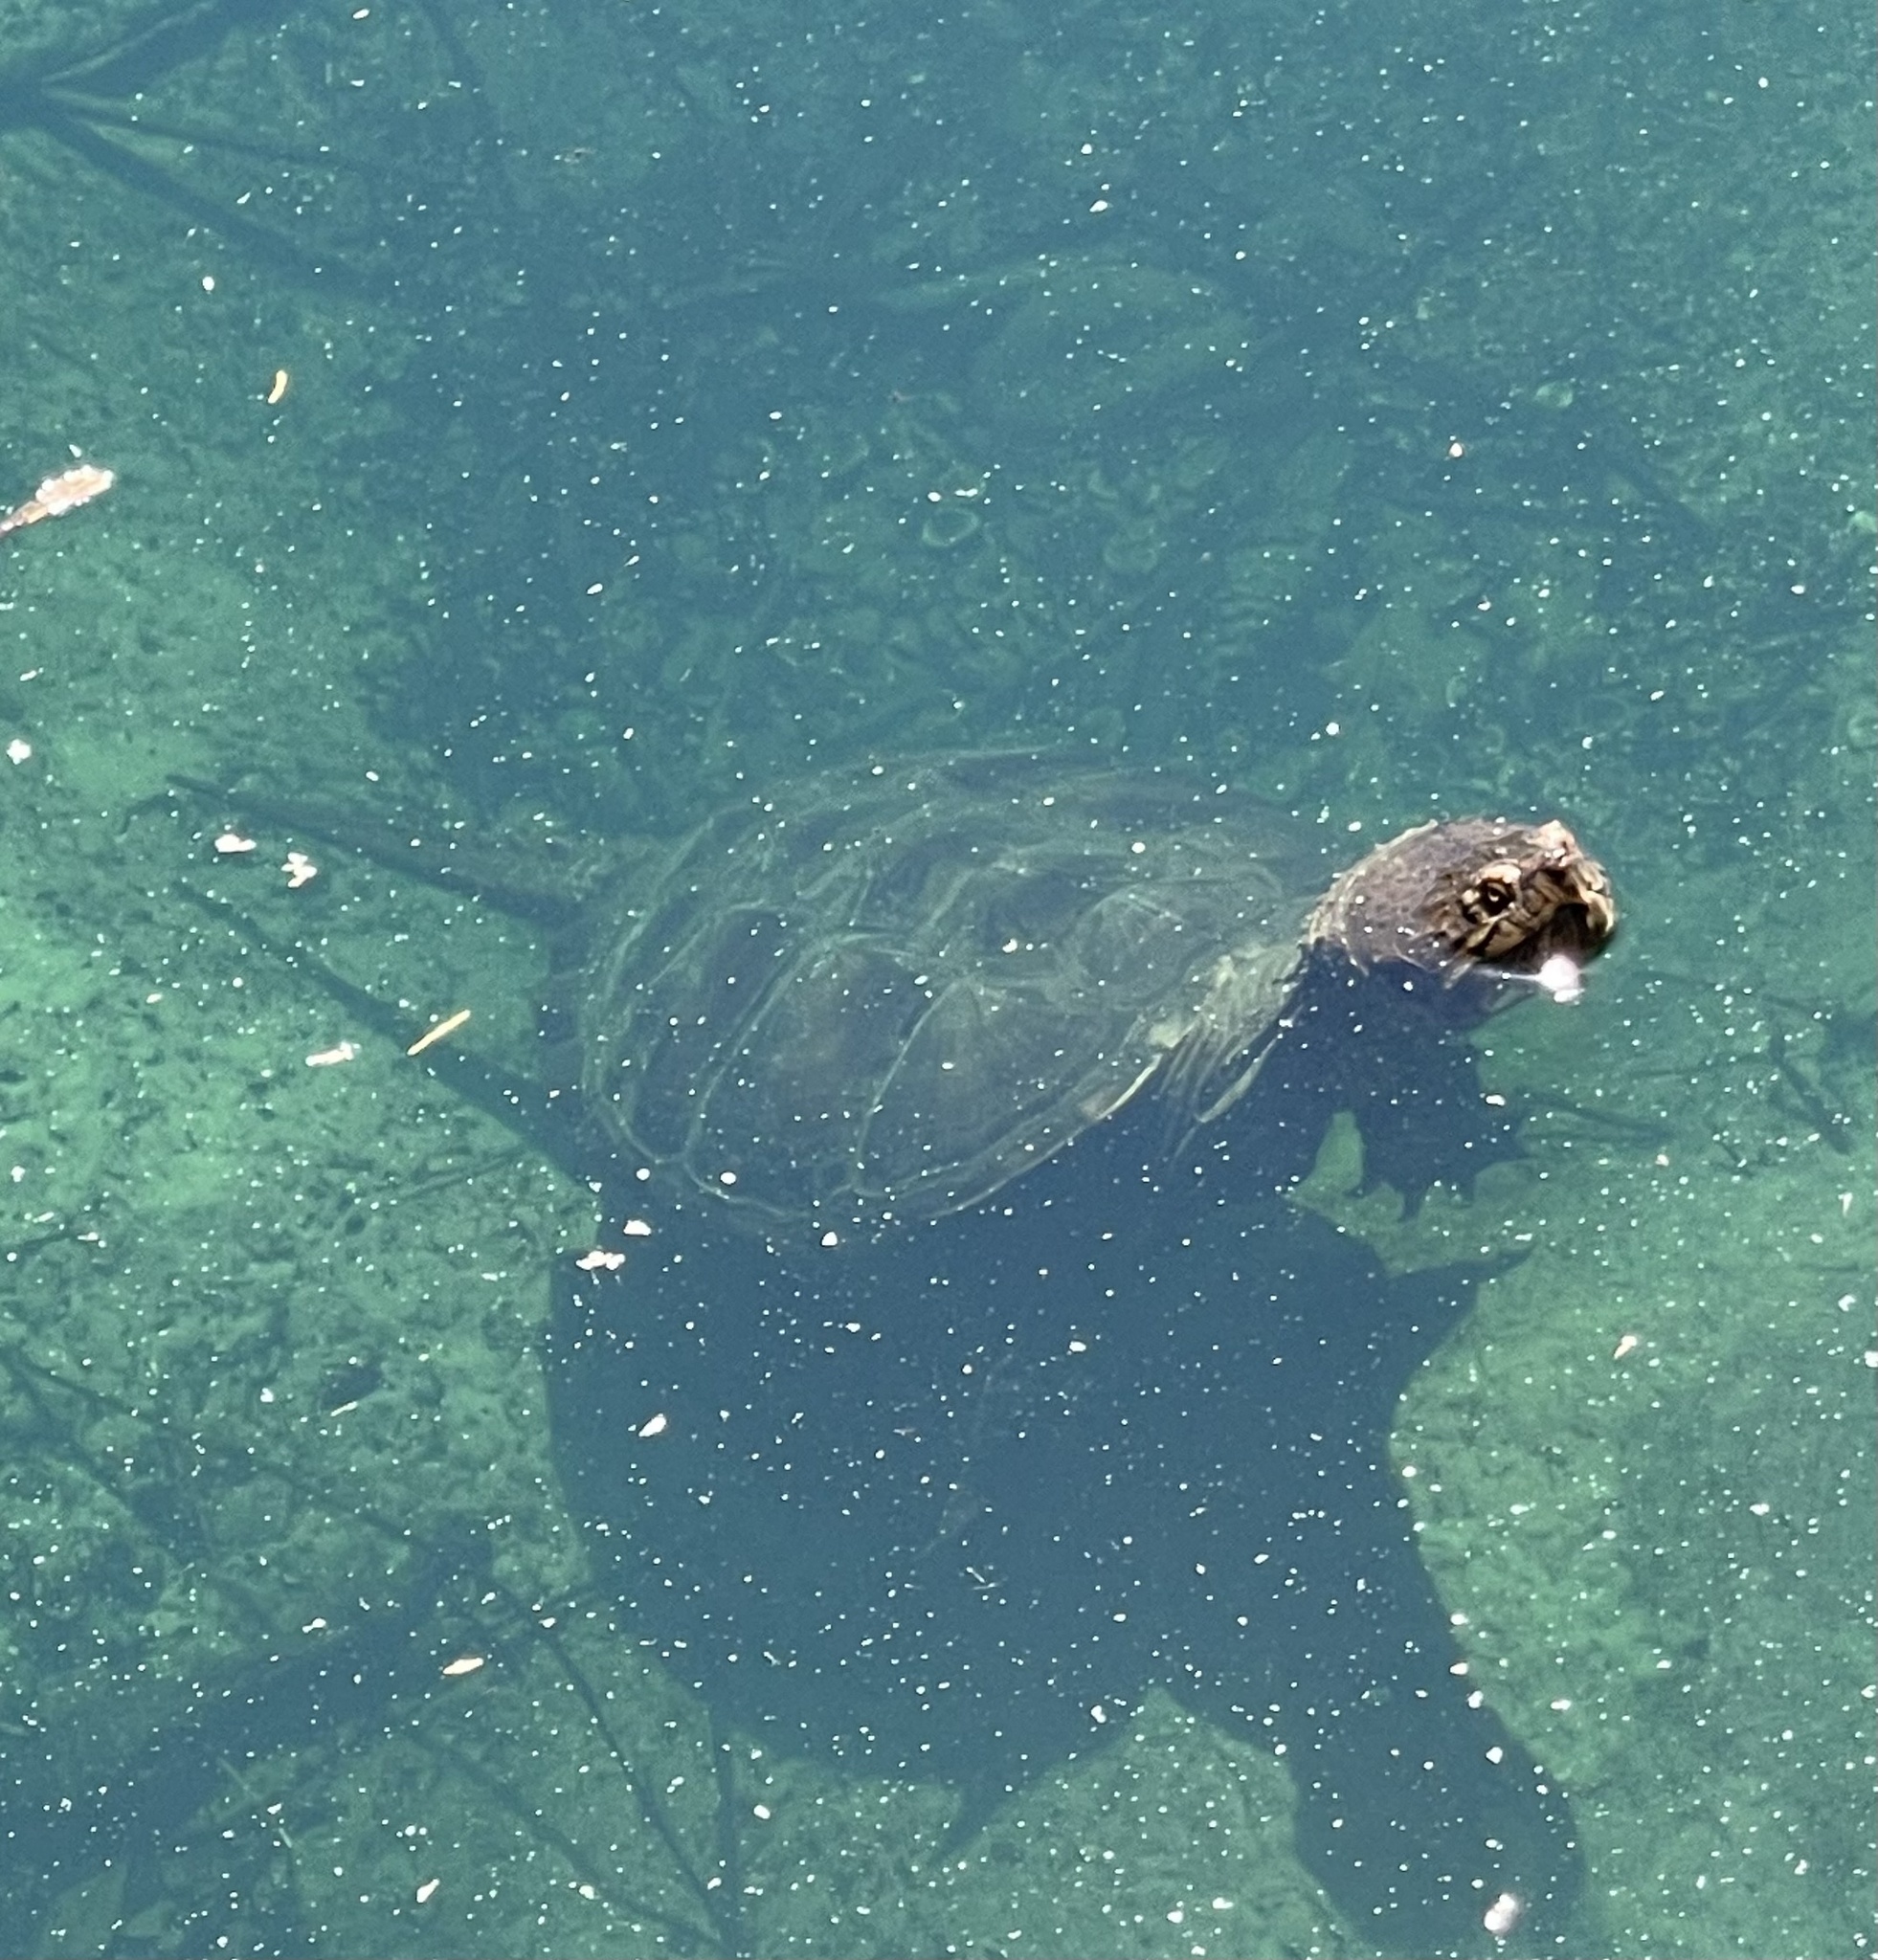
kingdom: Animalia
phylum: Chordata
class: Testudines
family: Chelydridae
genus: Chelydra
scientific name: Chelydra serpentina
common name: Common snapping turtle
